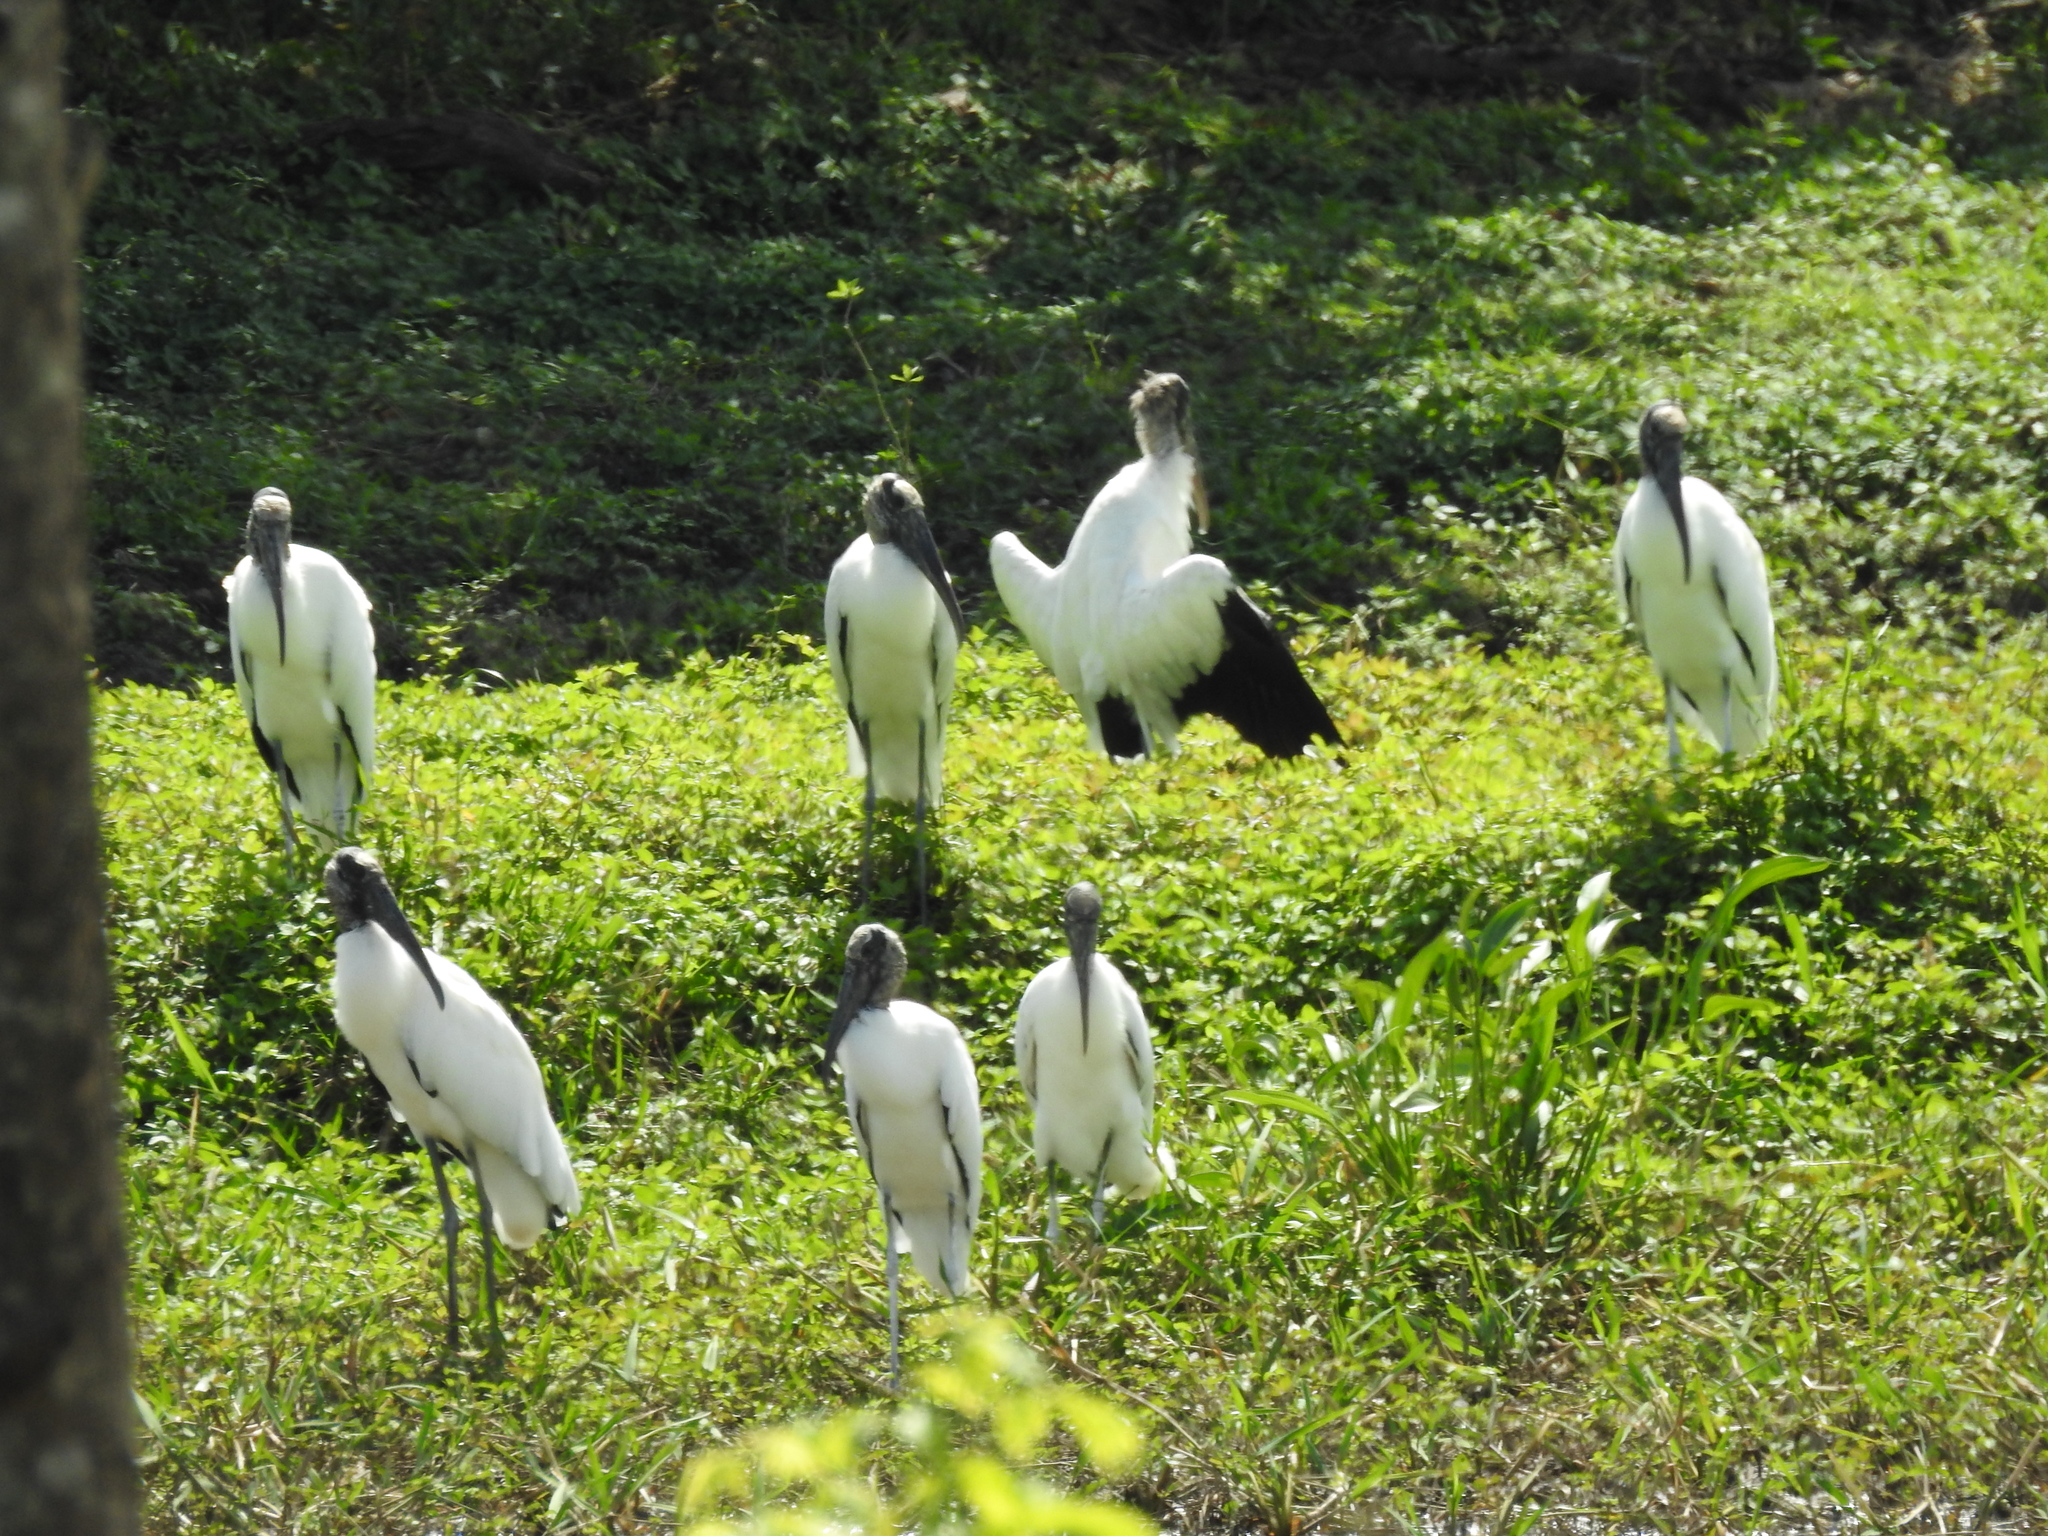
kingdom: Animalia
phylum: Chordata
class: Aves
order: Ciconiiformes
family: Ciconiidae
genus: Mycteria
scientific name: Mycteria americana
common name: Wood stork
